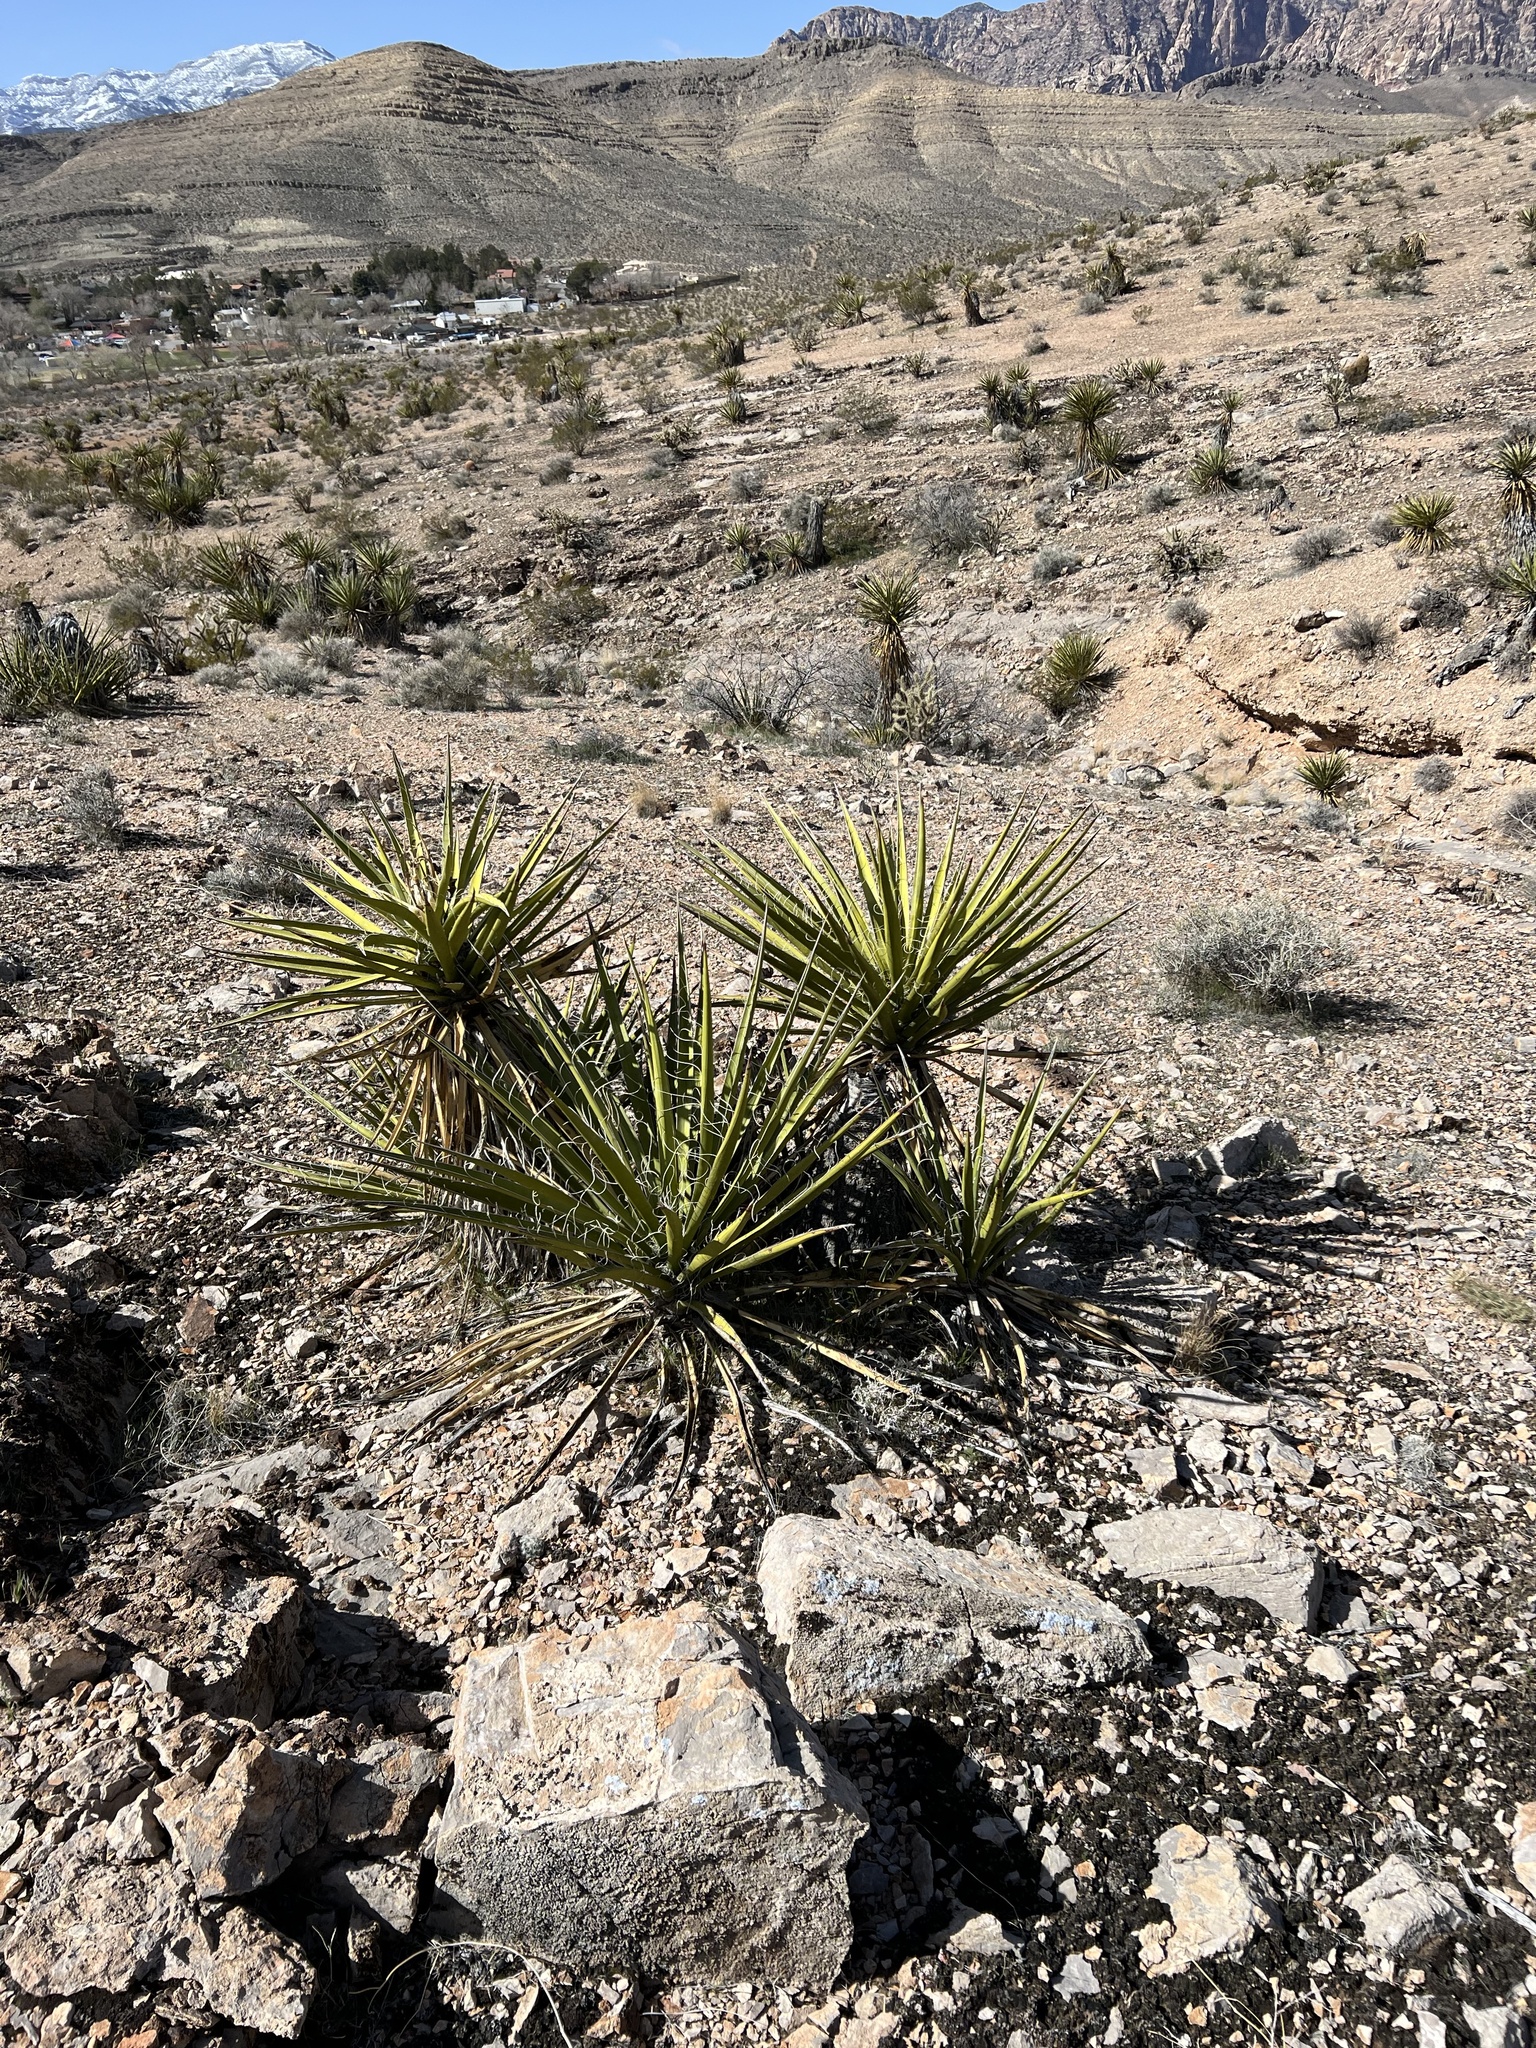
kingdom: Plantae
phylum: Tracheophyta
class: Liliopsida
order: Asparagales
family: Asparagaceae
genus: Yucca
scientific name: Yucca schidigera
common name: Mojave yucca
